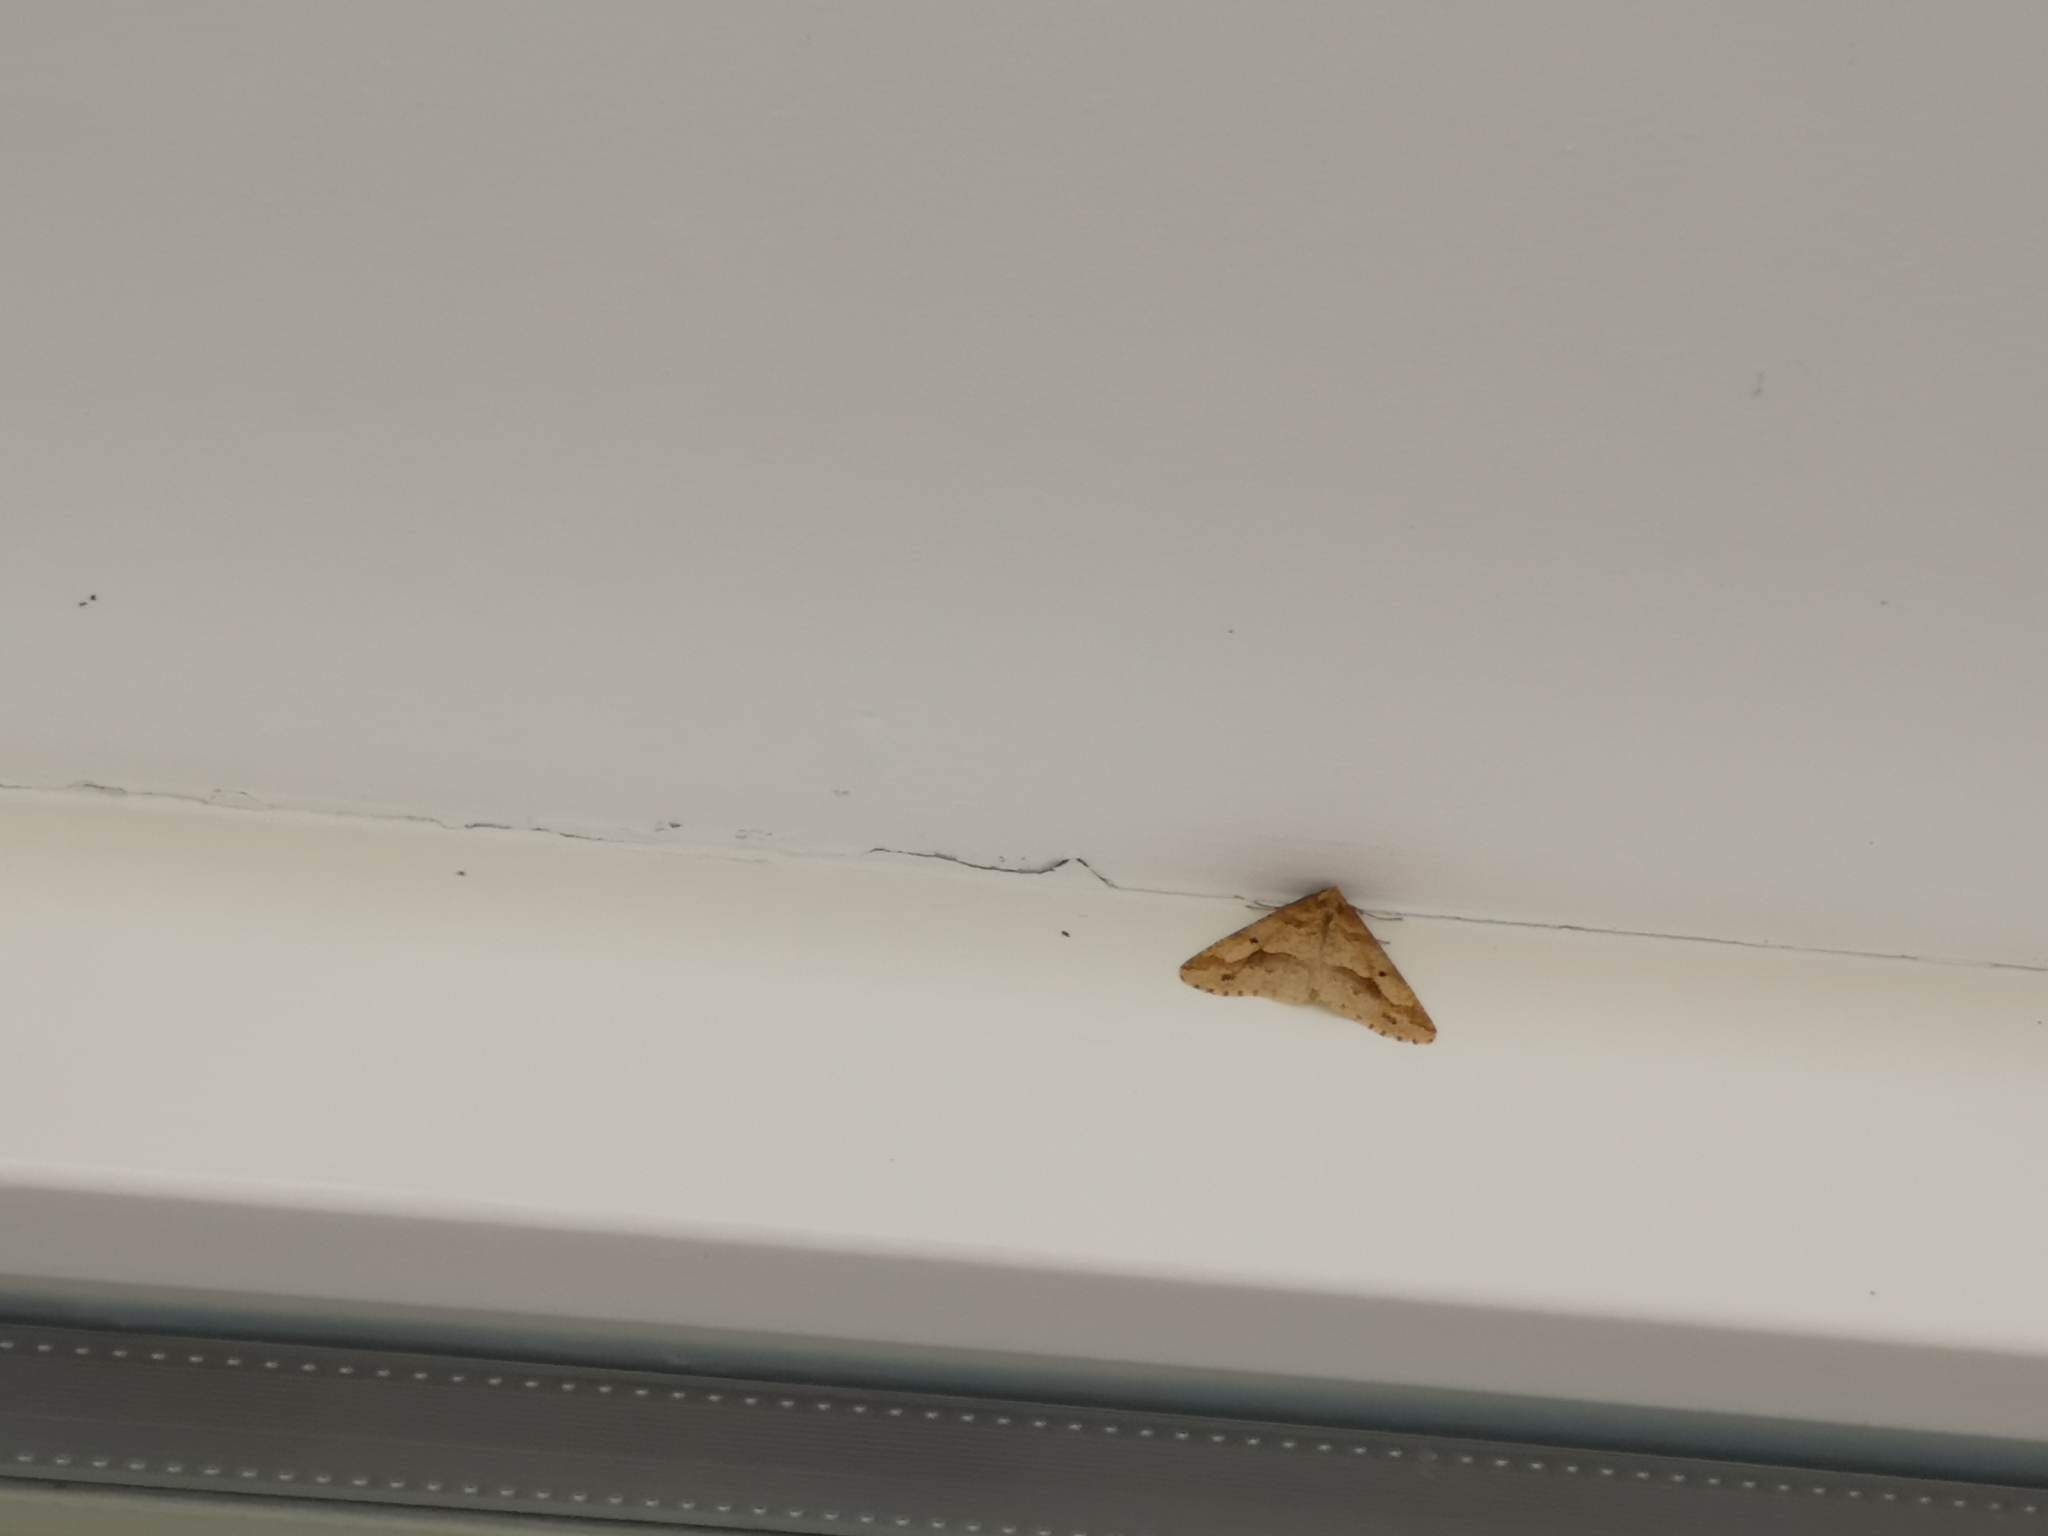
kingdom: Animalia
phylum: Arthropoda
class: Insecta
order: Lepidoptera
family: Geometridae
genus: Erannis
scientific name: Erannis defoliaria
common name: Mottled umber
